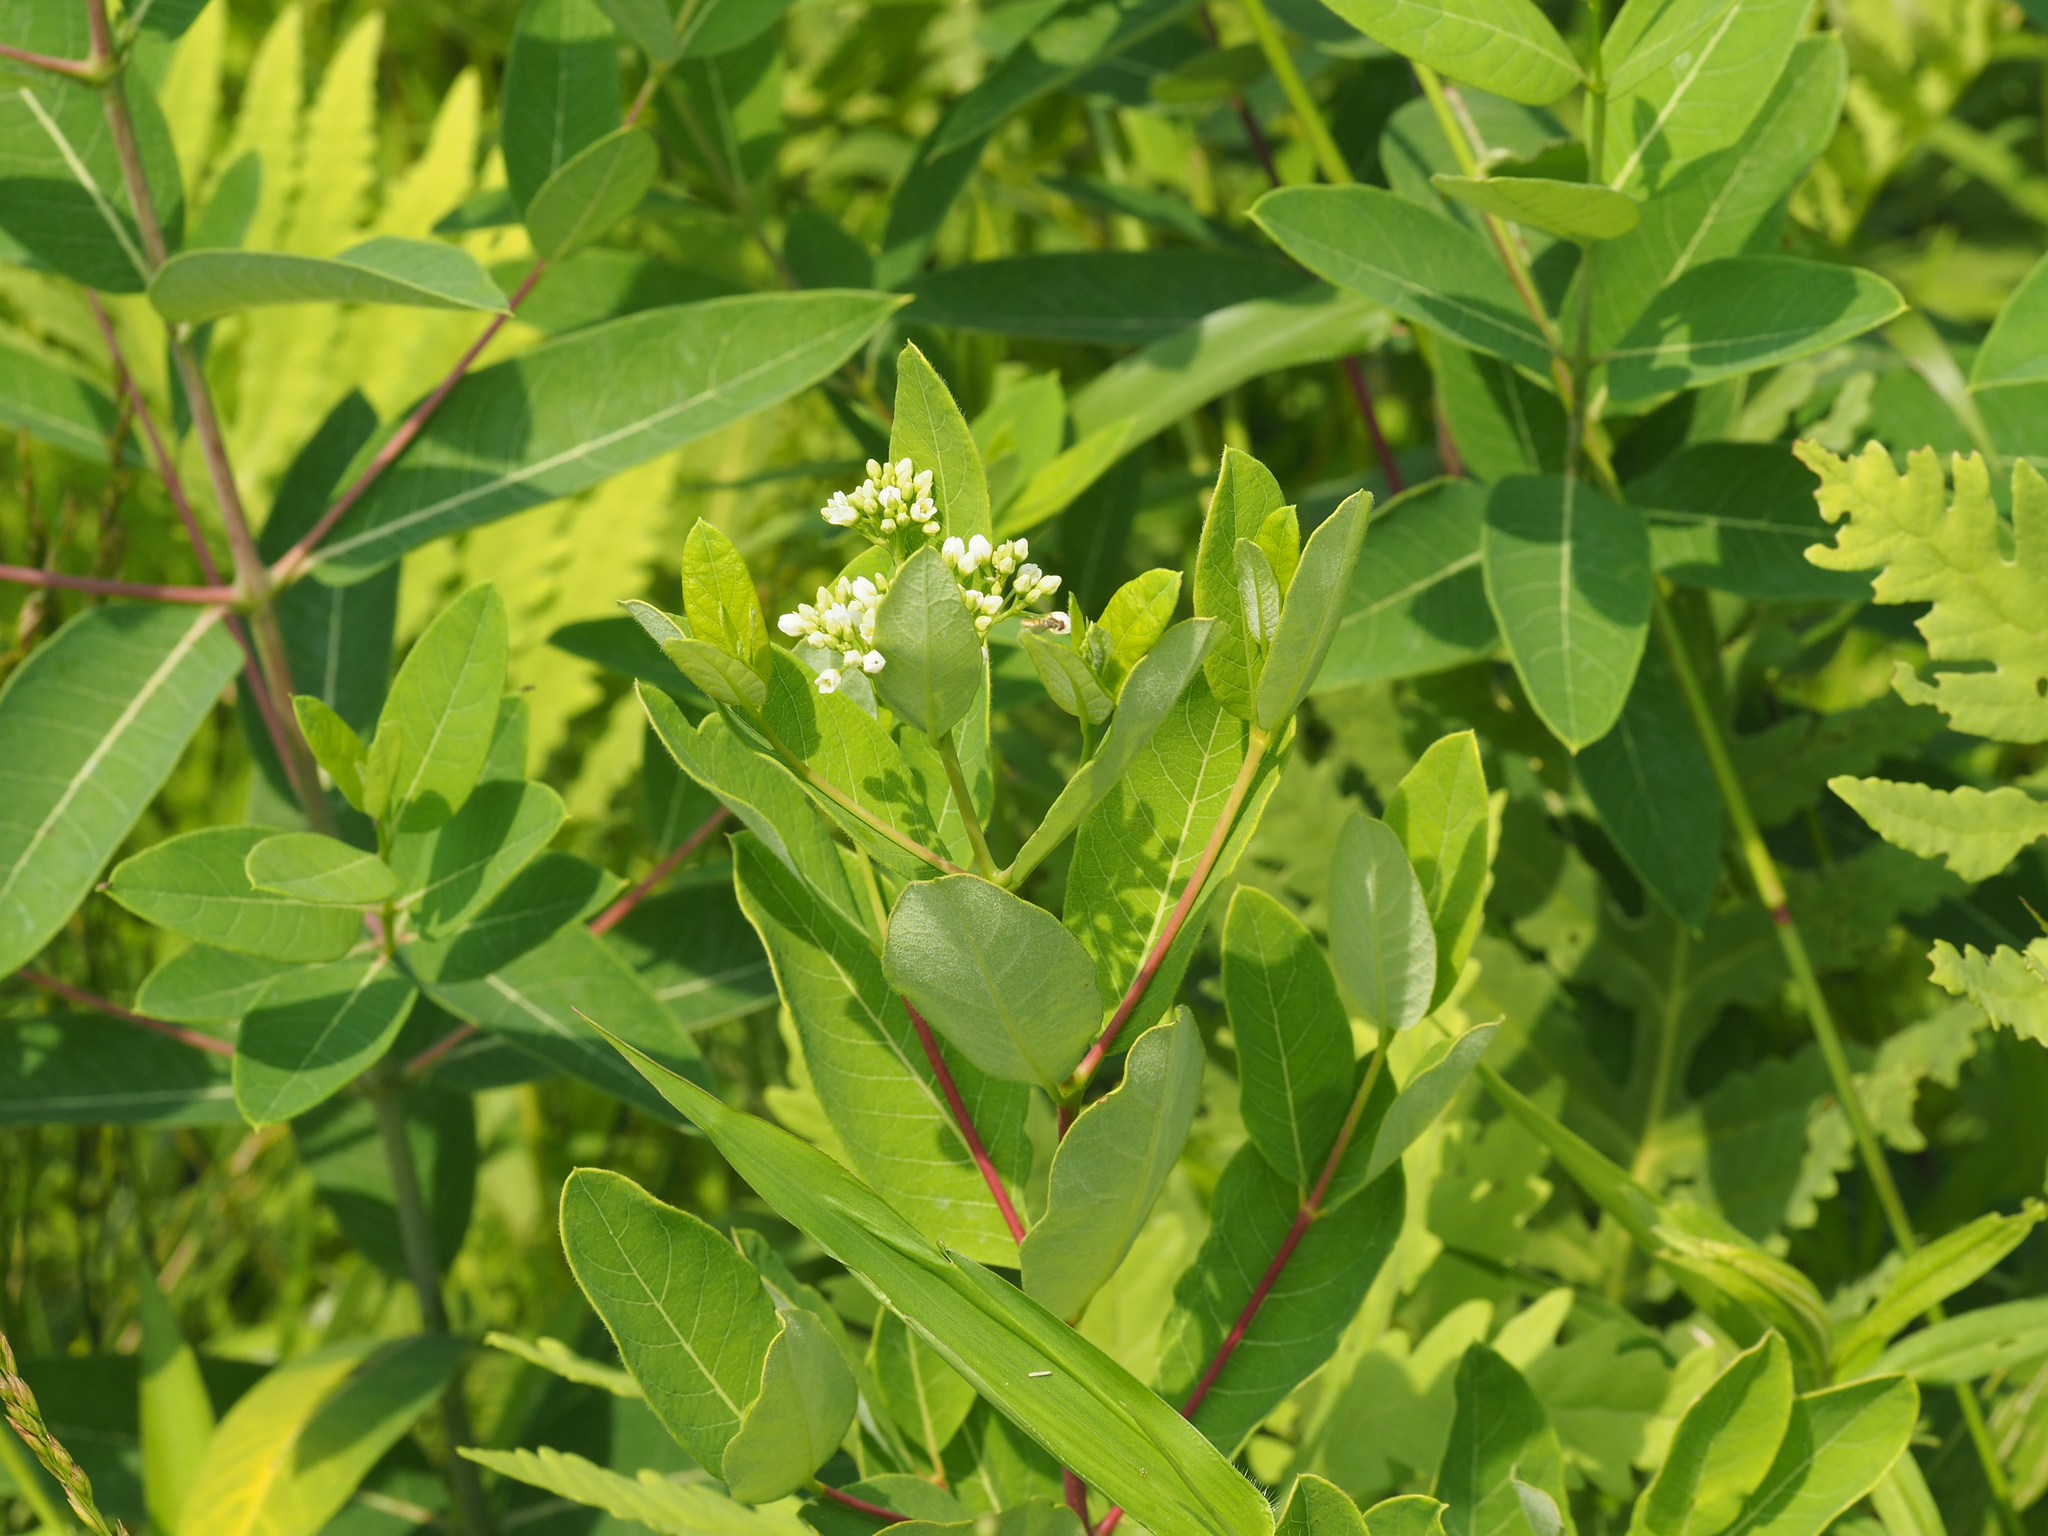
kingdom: Plantae
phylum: Tracheophyta
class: Magnoliopsida
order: Gentianales
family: Apocynaceae
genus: Apocynum
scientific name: Apocynum cannabinum
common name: Hemp dogbane
